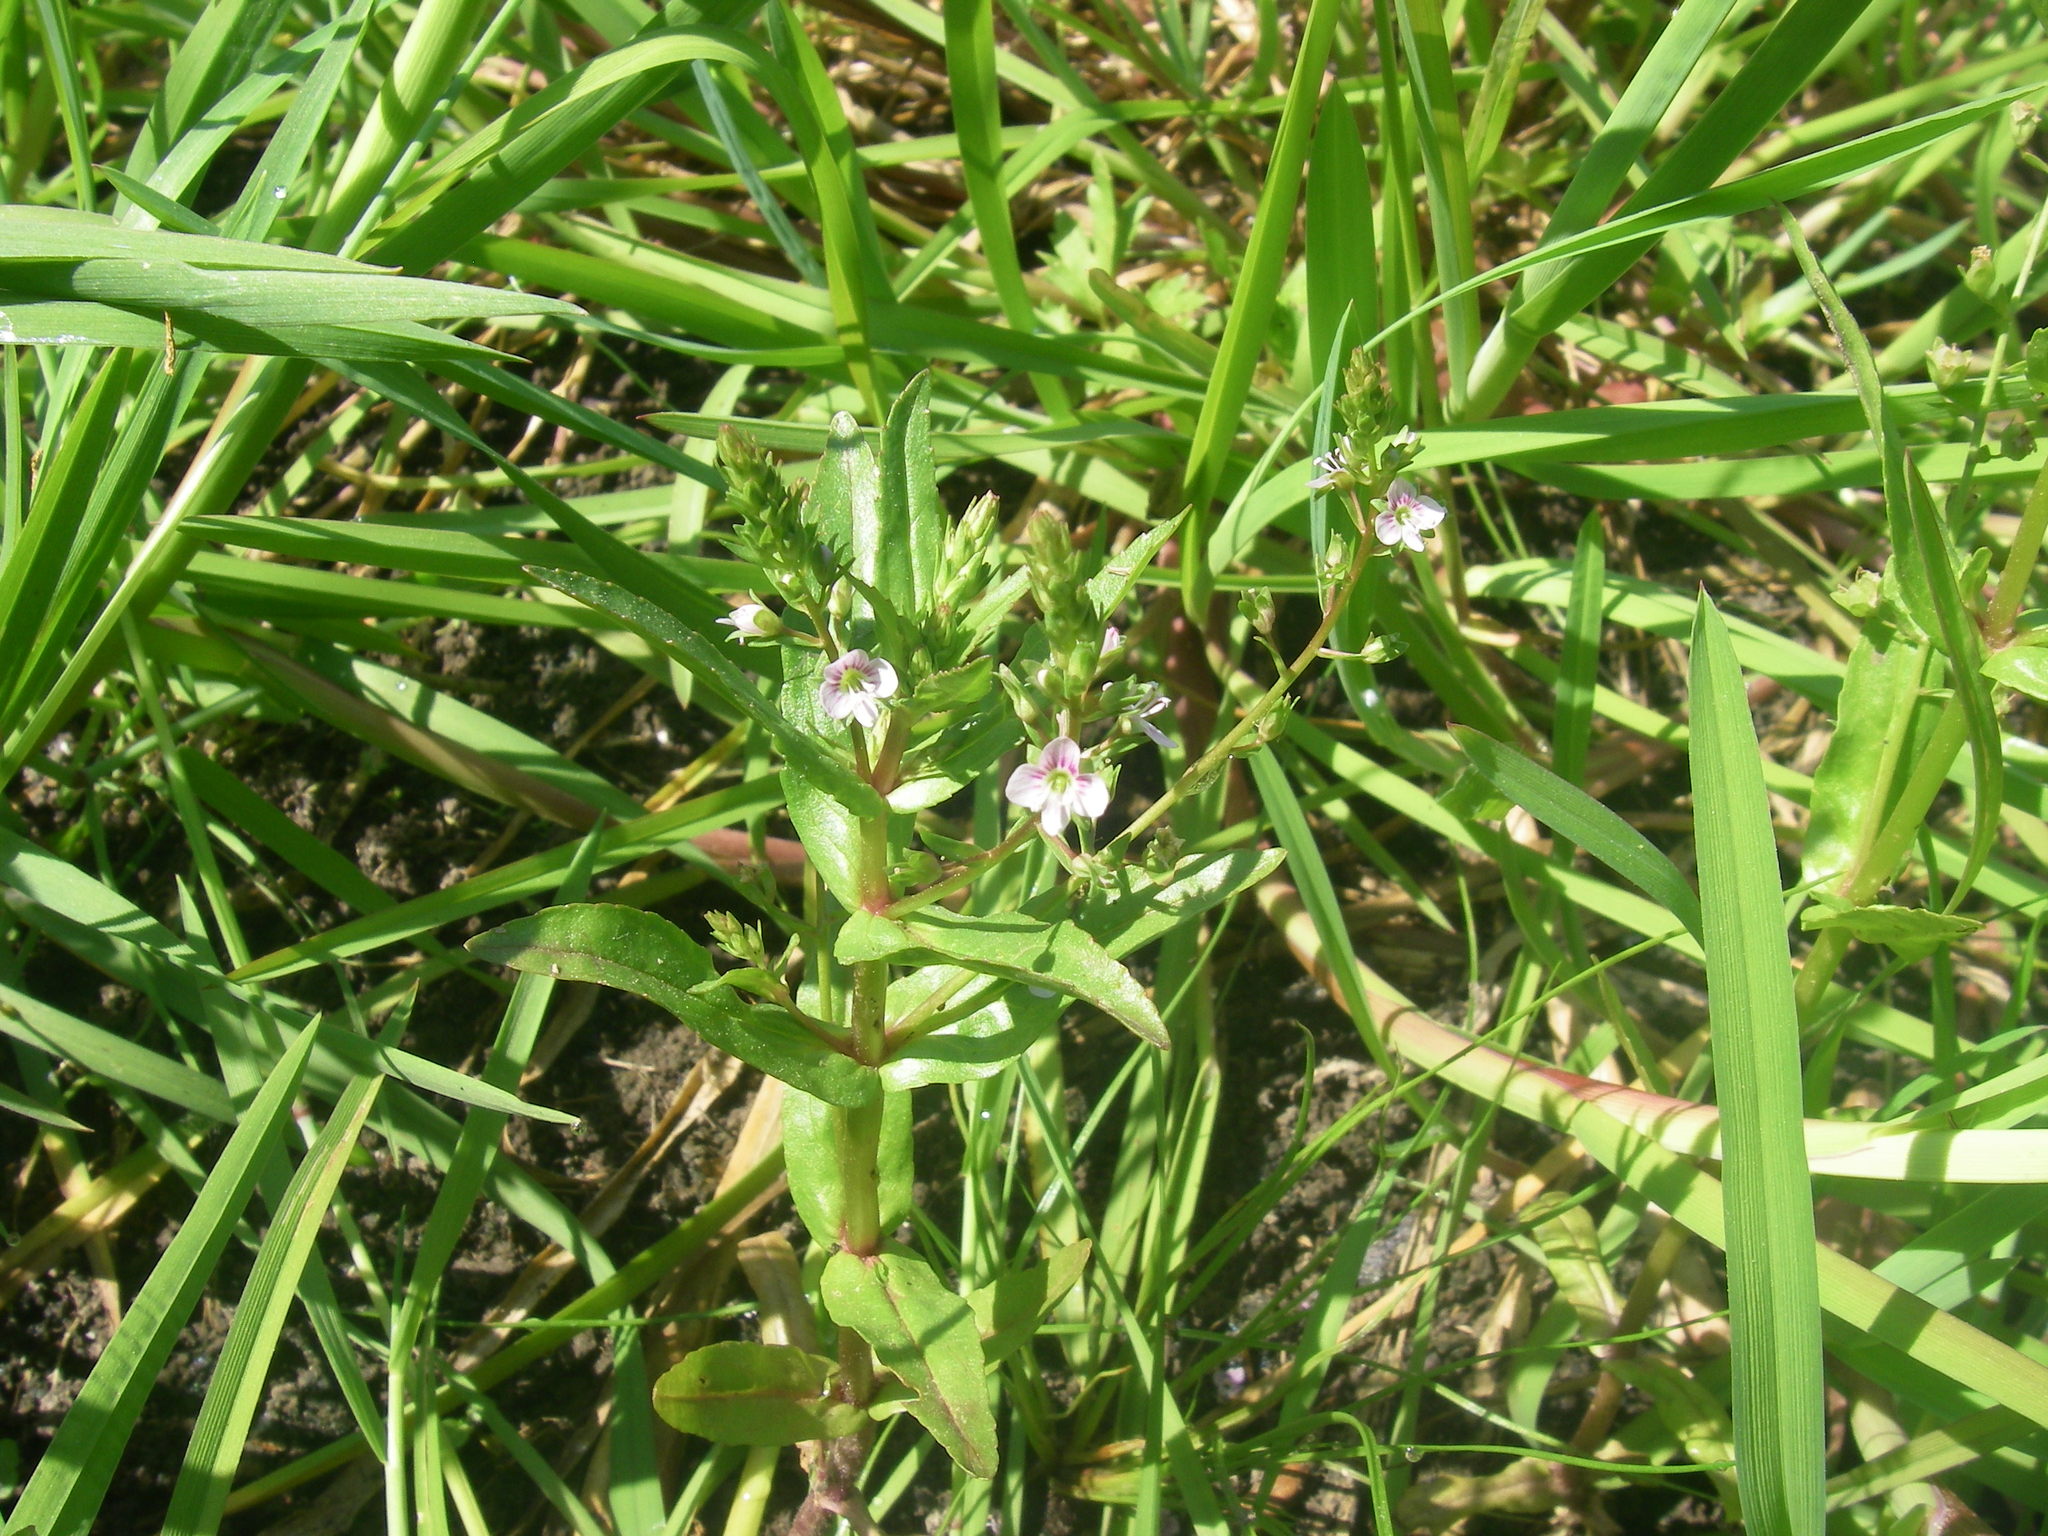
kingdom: Plantae
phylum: Tracheophyta
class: Magnoliopsida
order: Lamiales
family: Plantaginaceae
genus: Veronica
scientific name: Veronica anagallis-aquatica
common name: Water speedwell
